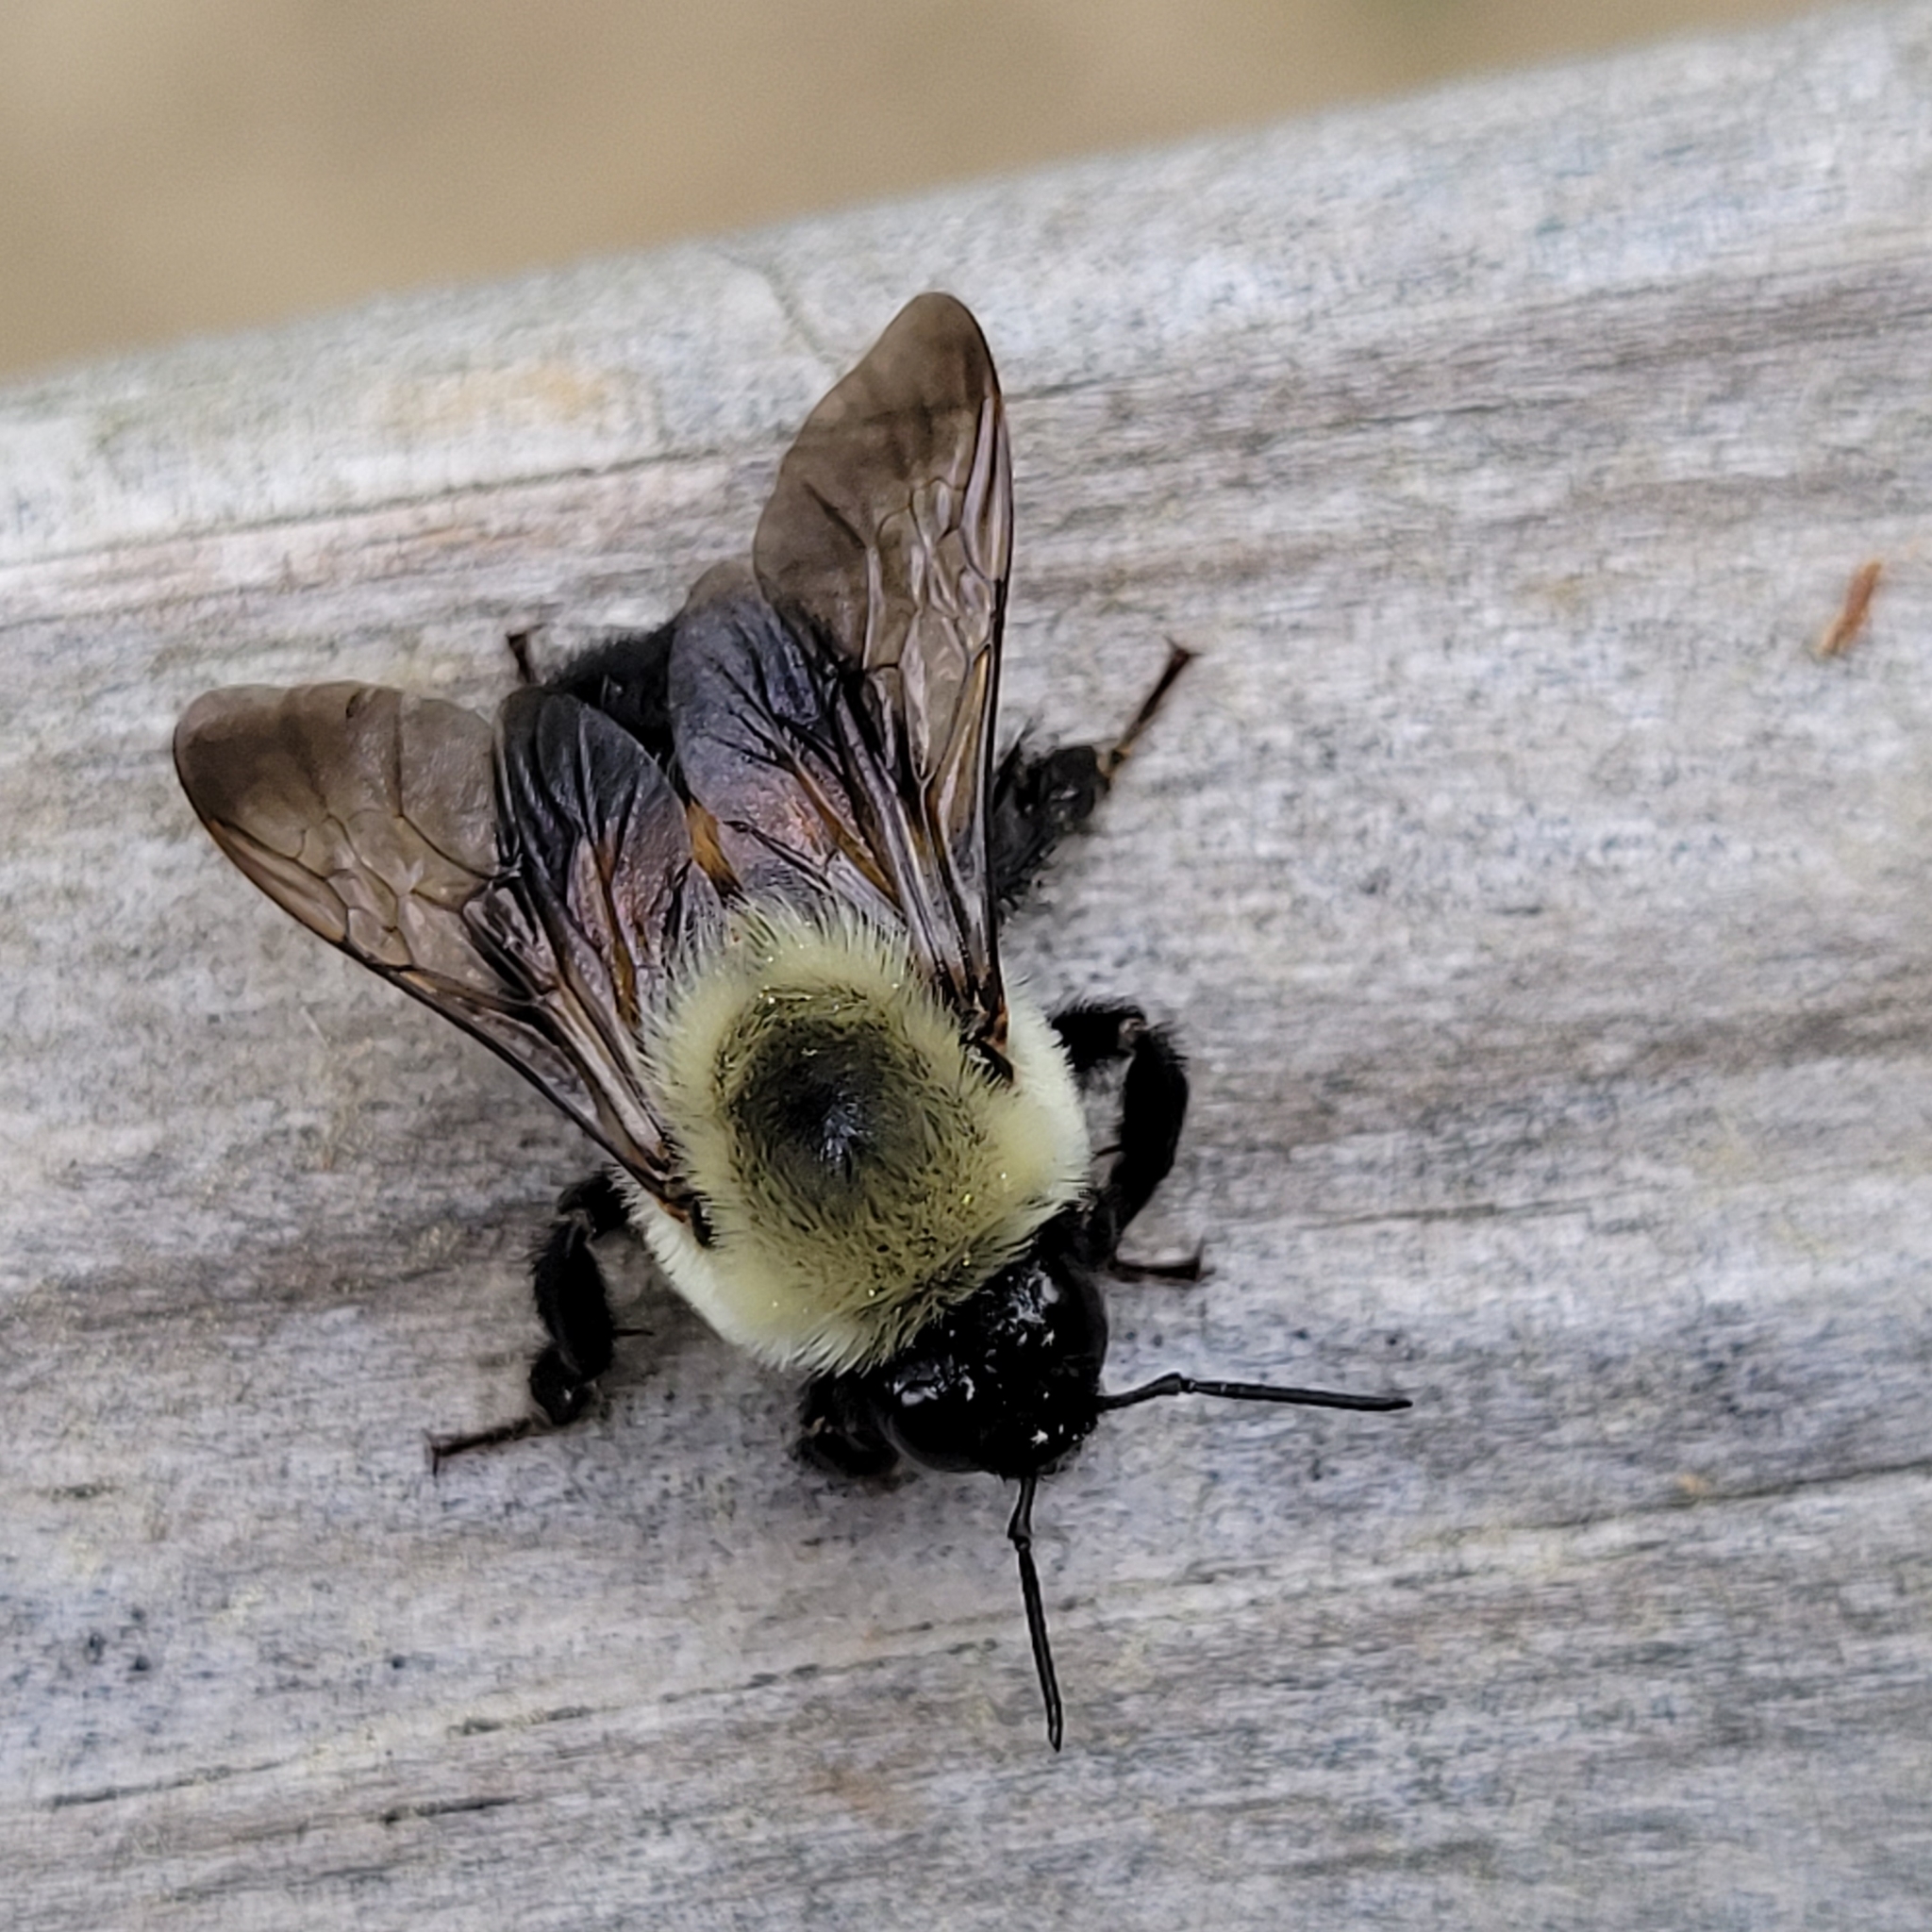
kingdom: Animalia
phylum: Arthropoda
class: Insecta
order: Hymenoptera
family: Apidae
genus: Bombus
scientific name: Bombus griseocollis
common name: Brown-belted bumble bee
